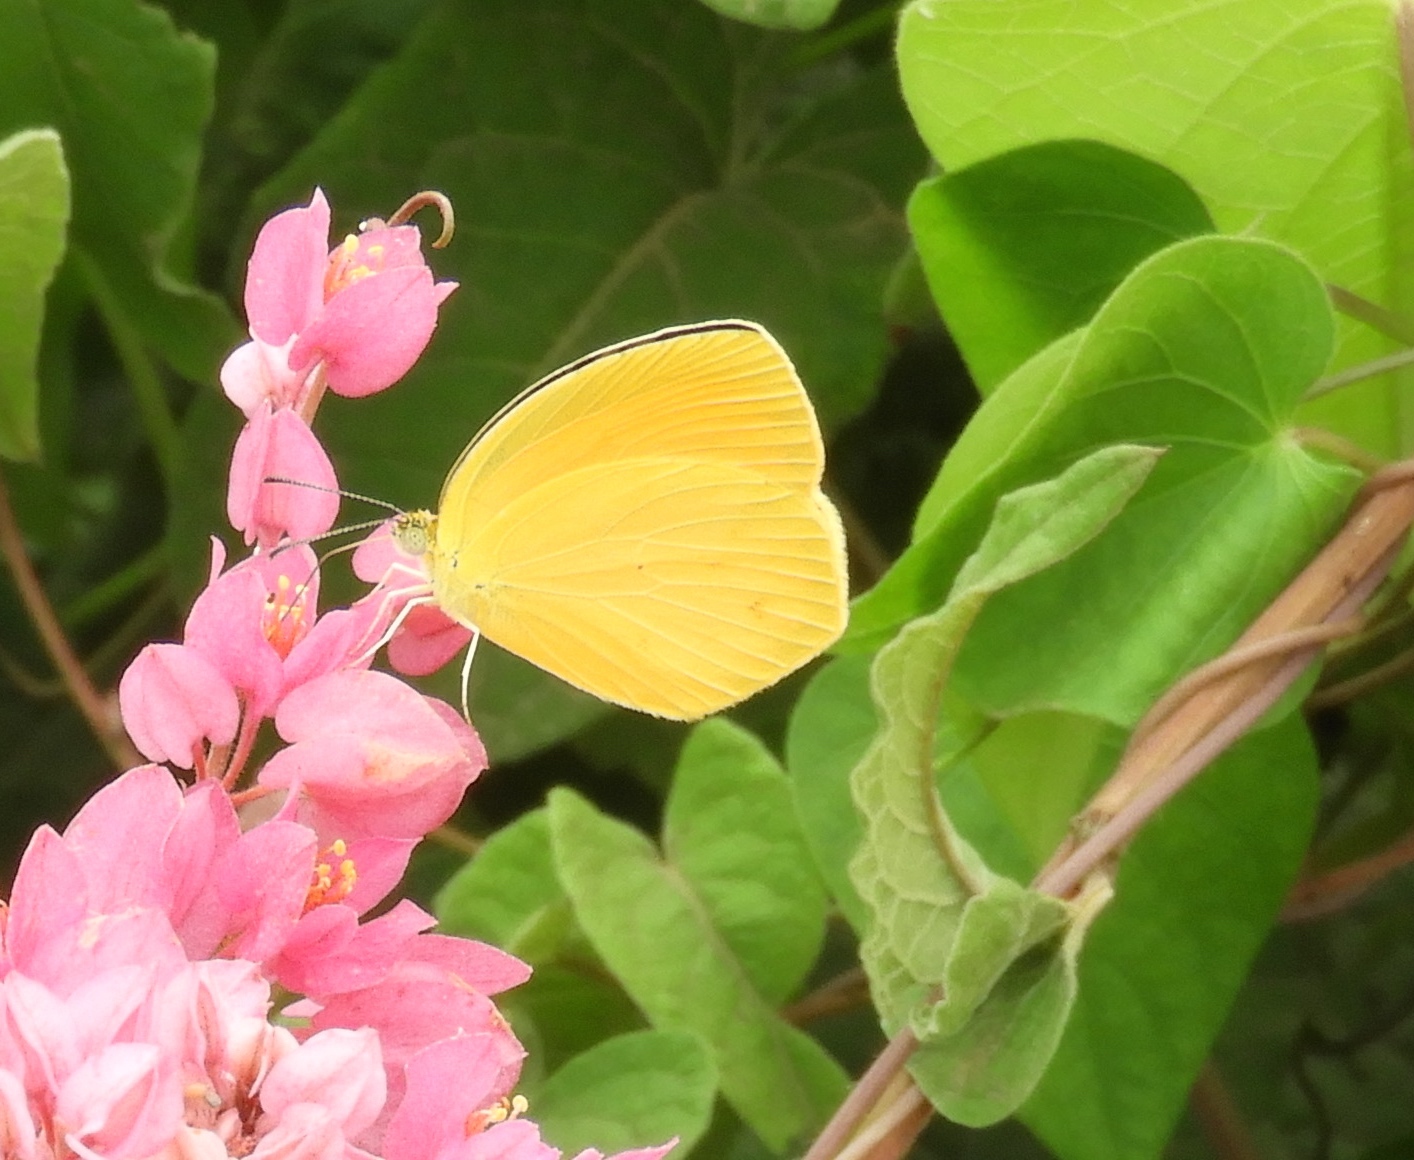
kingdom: Animalia
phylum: Arthropoda
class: Insecta
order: Lepidoptera
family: Pieridae
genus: Pyrisitia
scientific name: Pyrisitia proterpia
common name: Tailed orange
